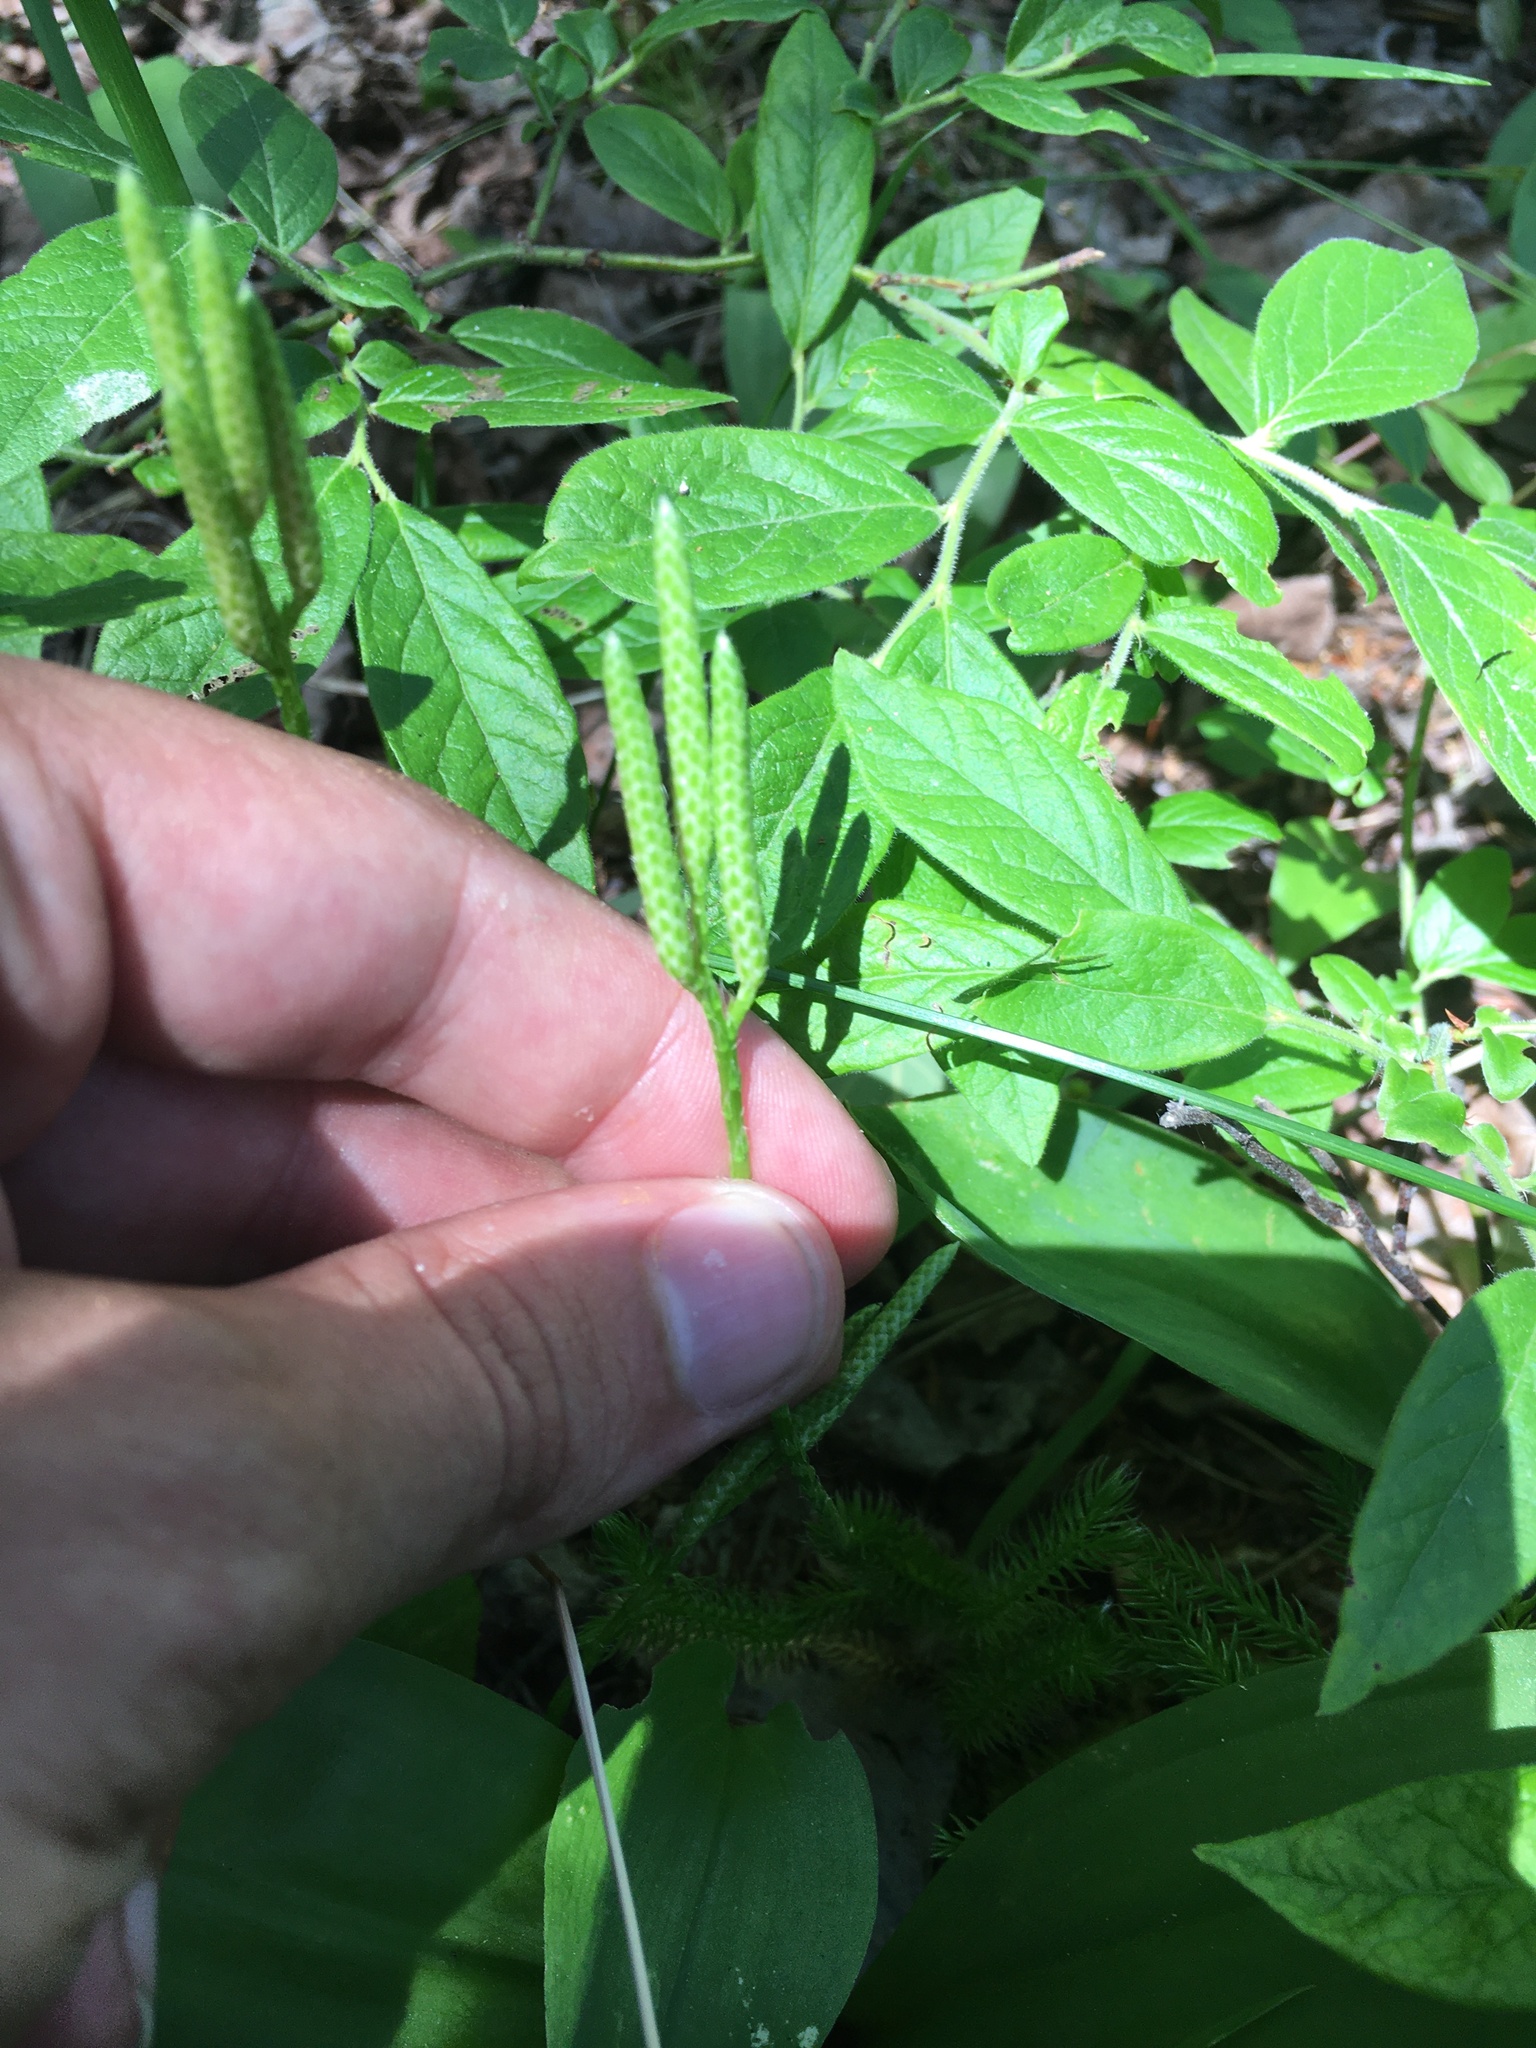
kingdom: Plantae
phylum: Tracheophyta
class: Lycopodiopsida
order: Lycopodiales
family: Lycopodiaceae
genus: Lycopodium
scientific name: Lycopodium clavatum
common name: Stag's-horn clubmoss
